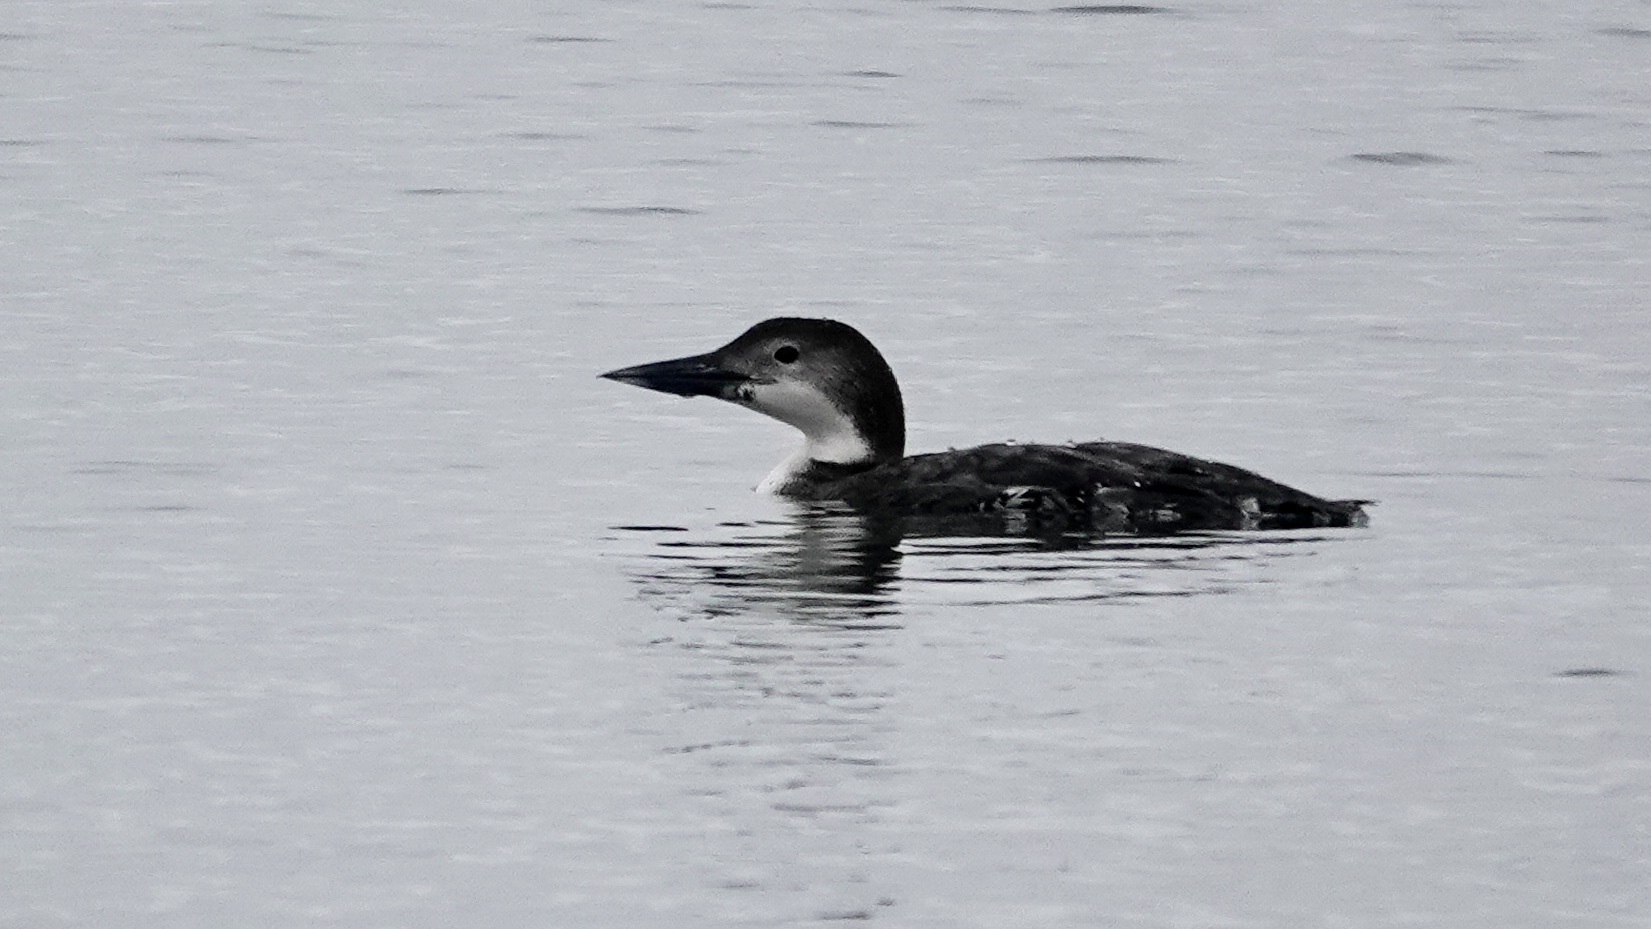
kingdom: Animalia
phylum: Chordata
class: Aves
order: Gaviiformes
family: Gaviidae
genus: Gavia
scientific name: Gavia immer
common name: Common loon
